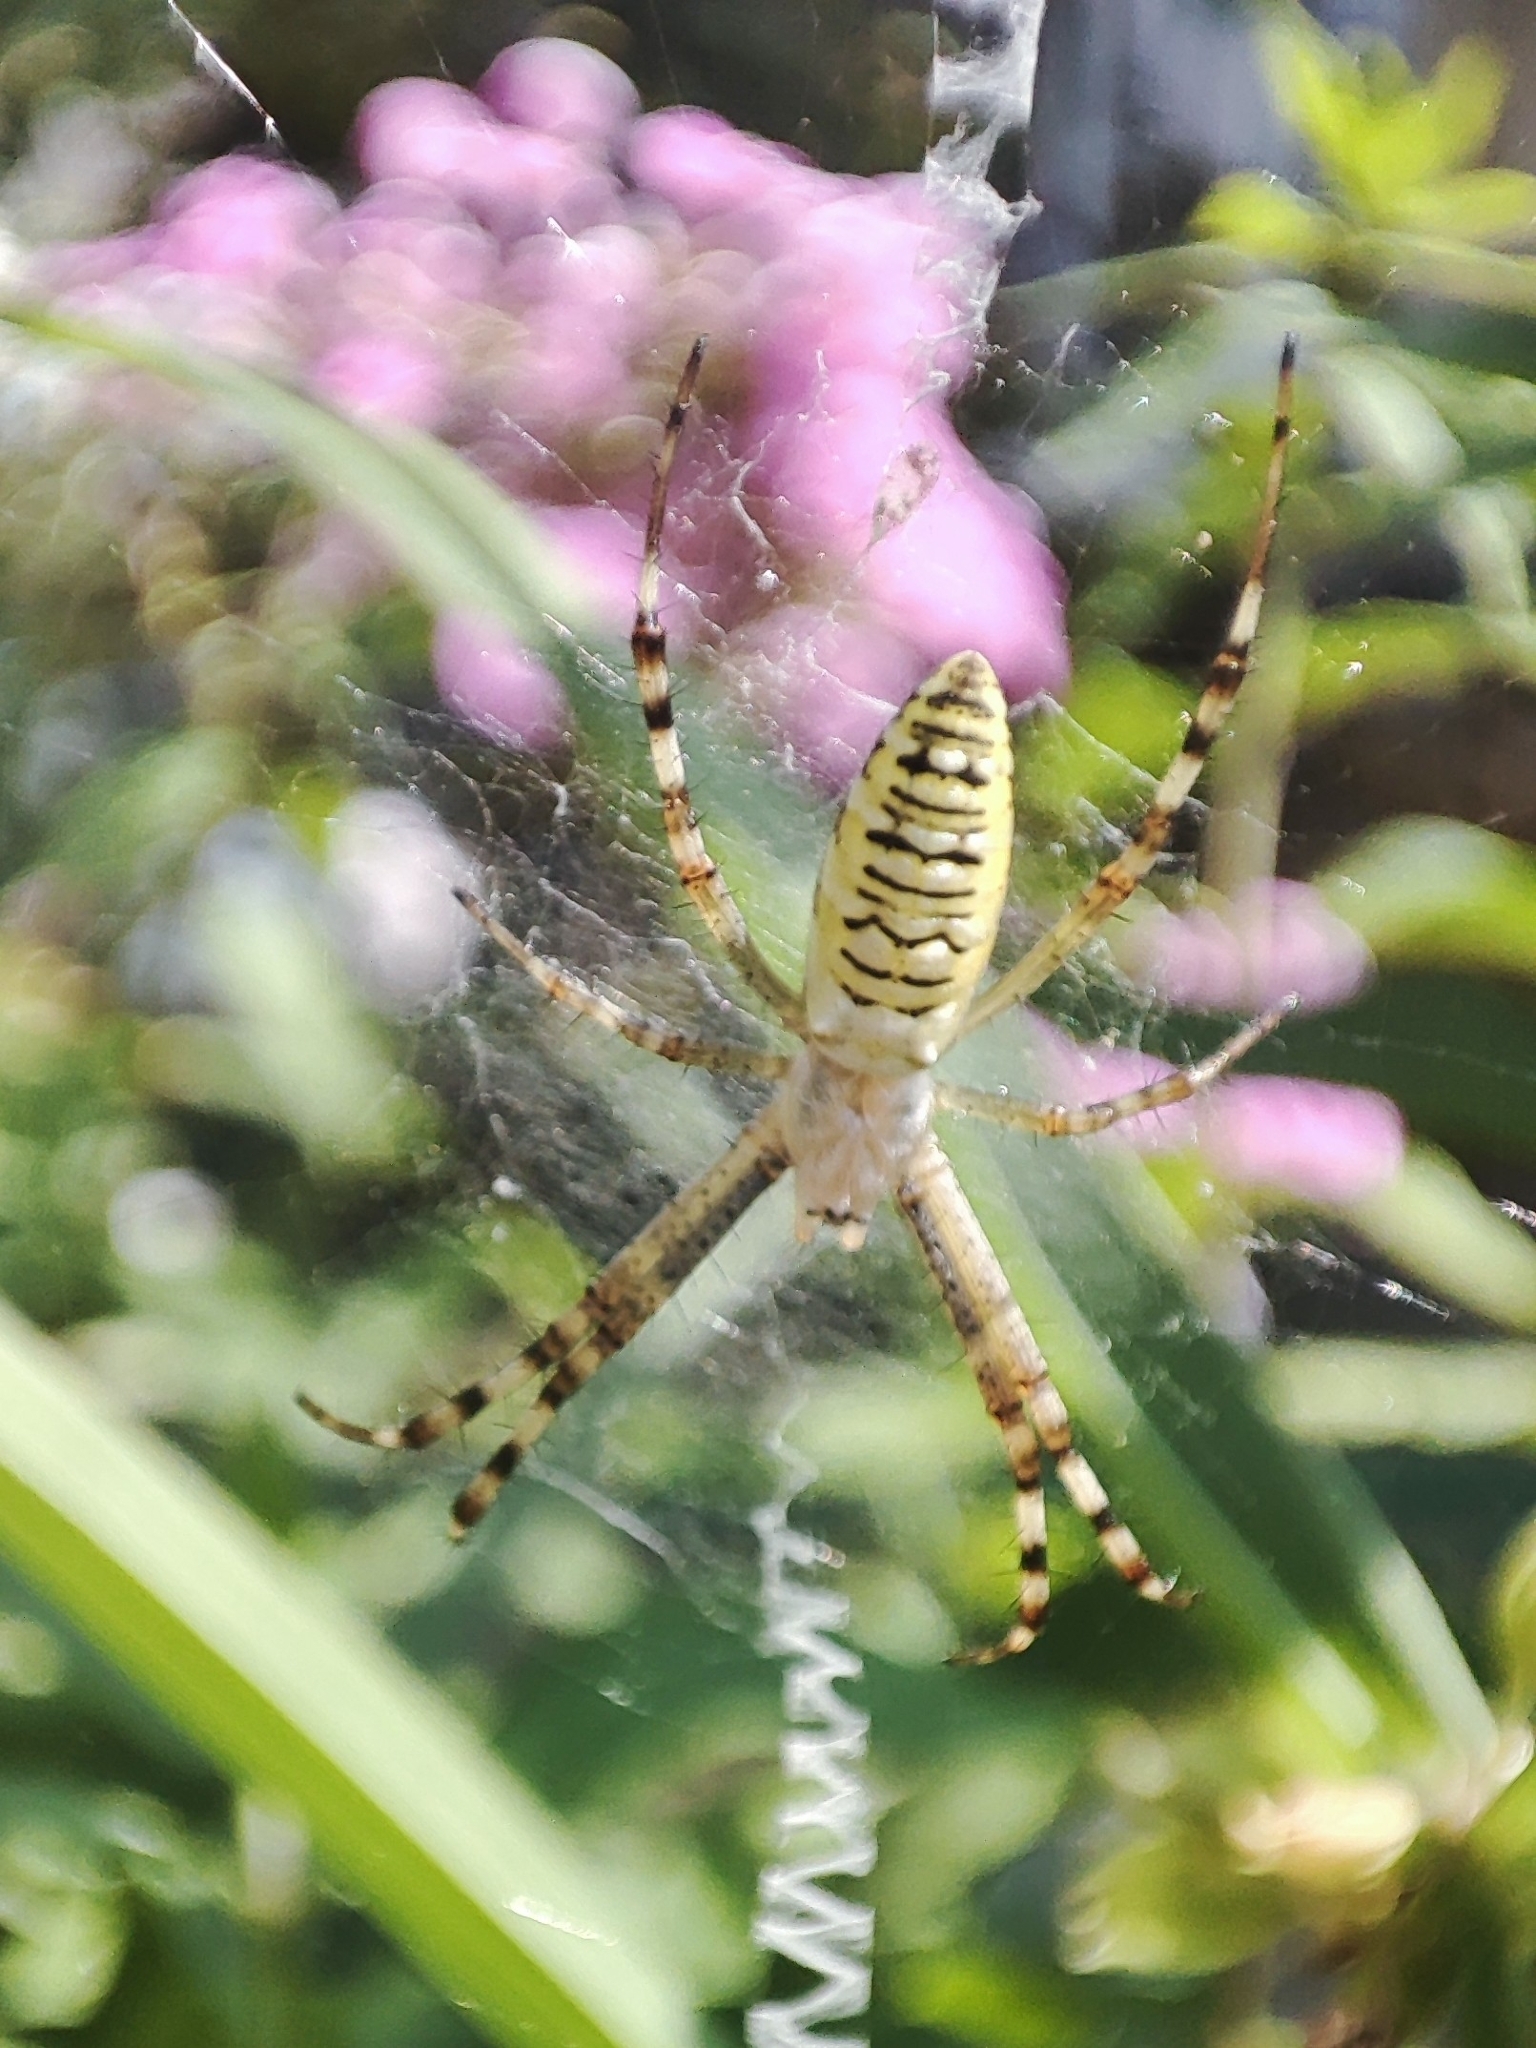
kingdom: Animalia
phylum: Arthropoda
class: Arachnida
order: Araneae
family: Araneidae
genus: Argiope
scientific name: Argiope bruennichi
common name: Wasp spider
